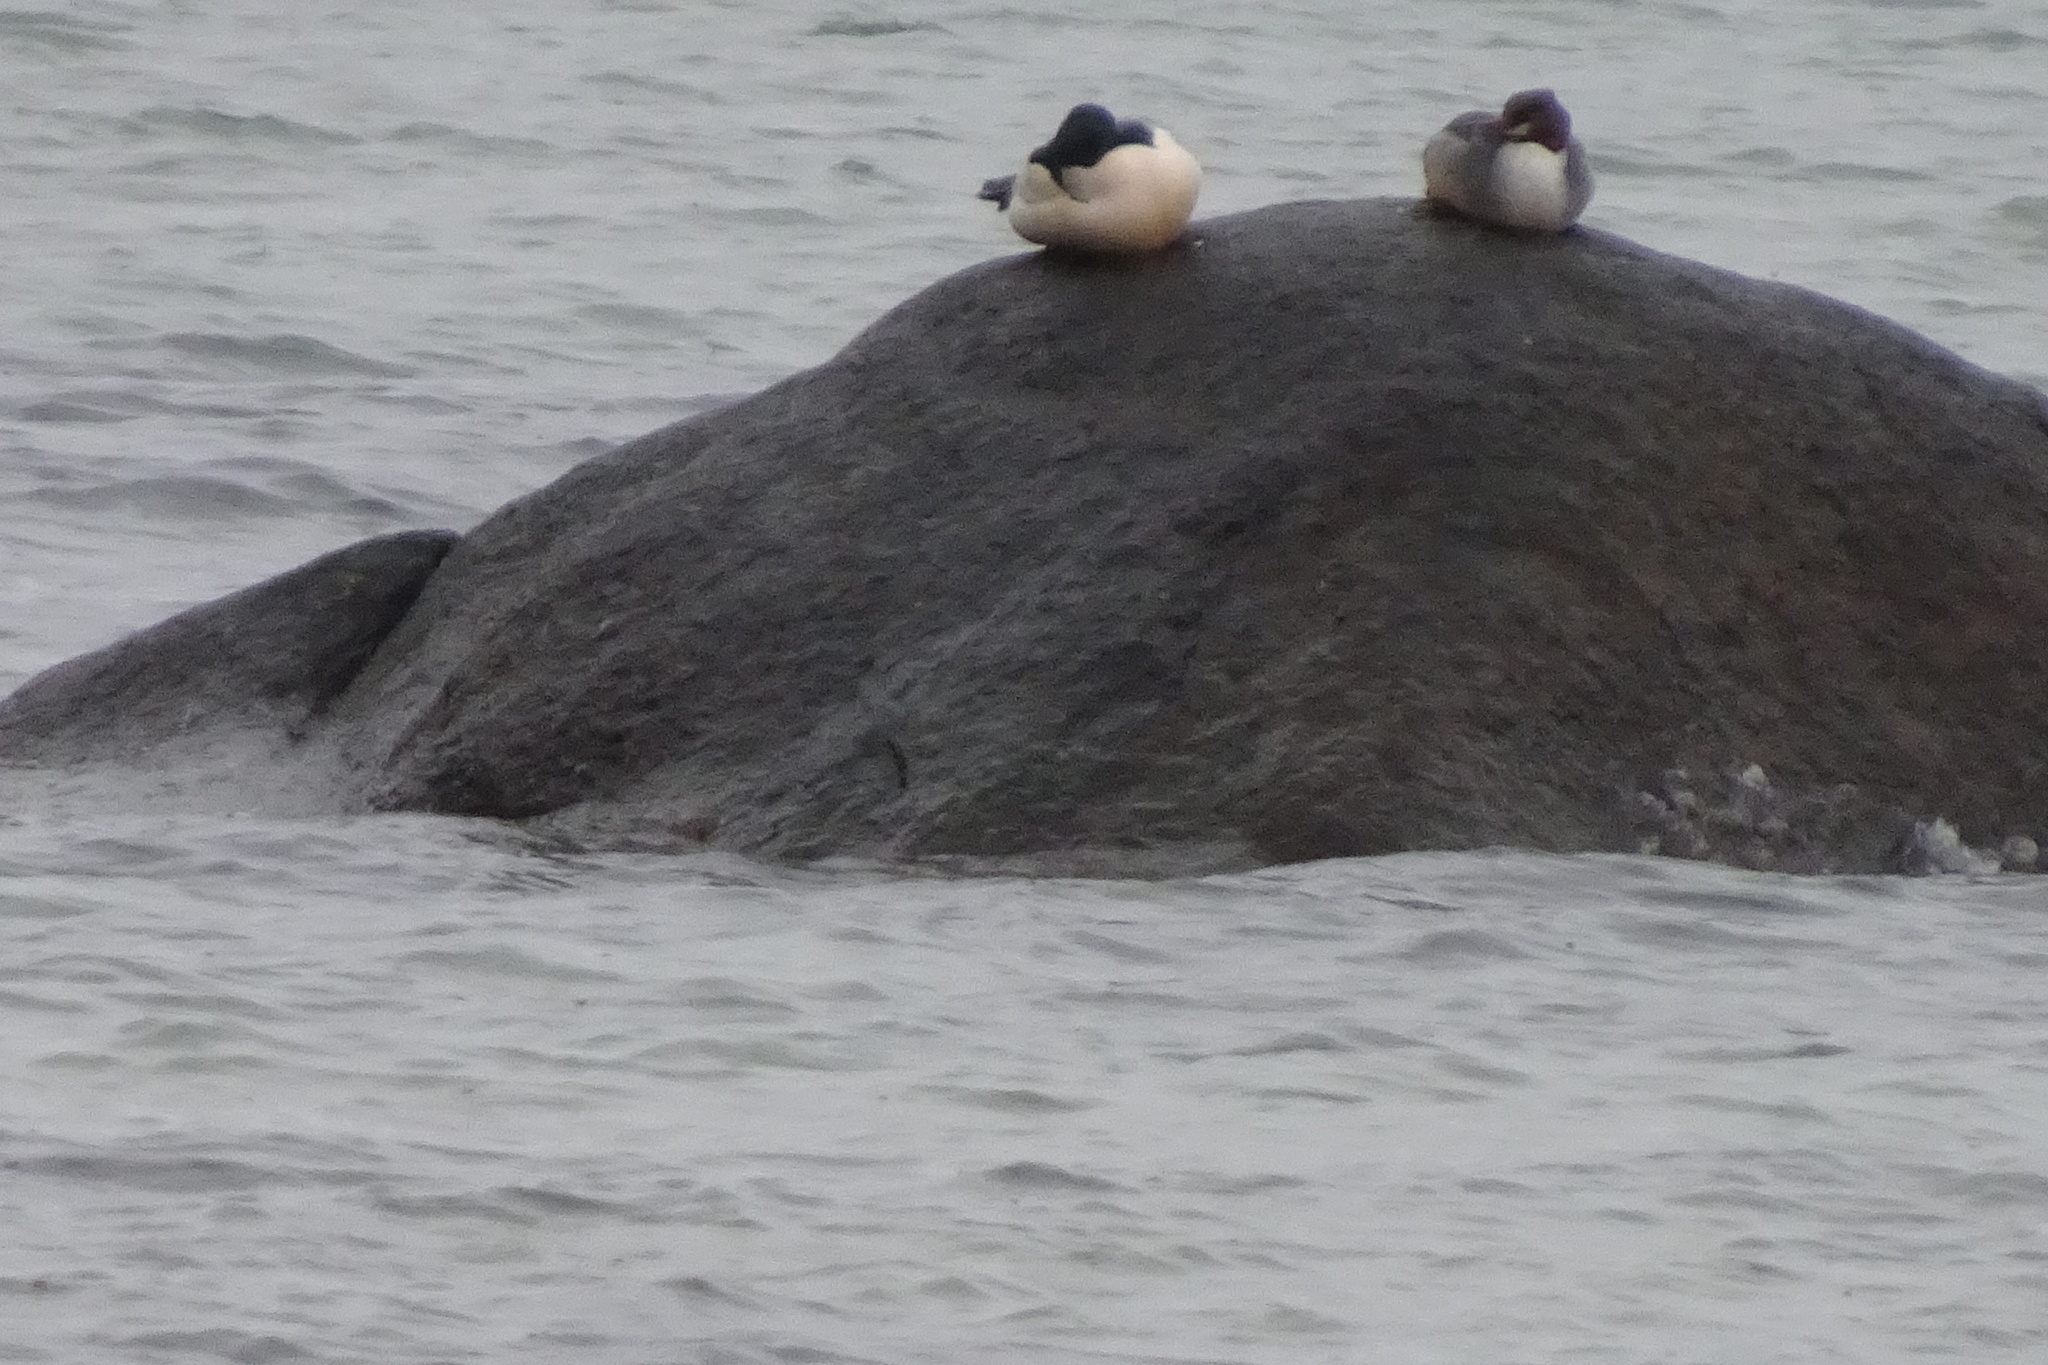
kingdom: Animalia
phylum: Chordata
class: Aves
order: Anseriformes
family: Anatidae
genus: Mergus
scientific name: Mergus merganser
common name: Common merganser
